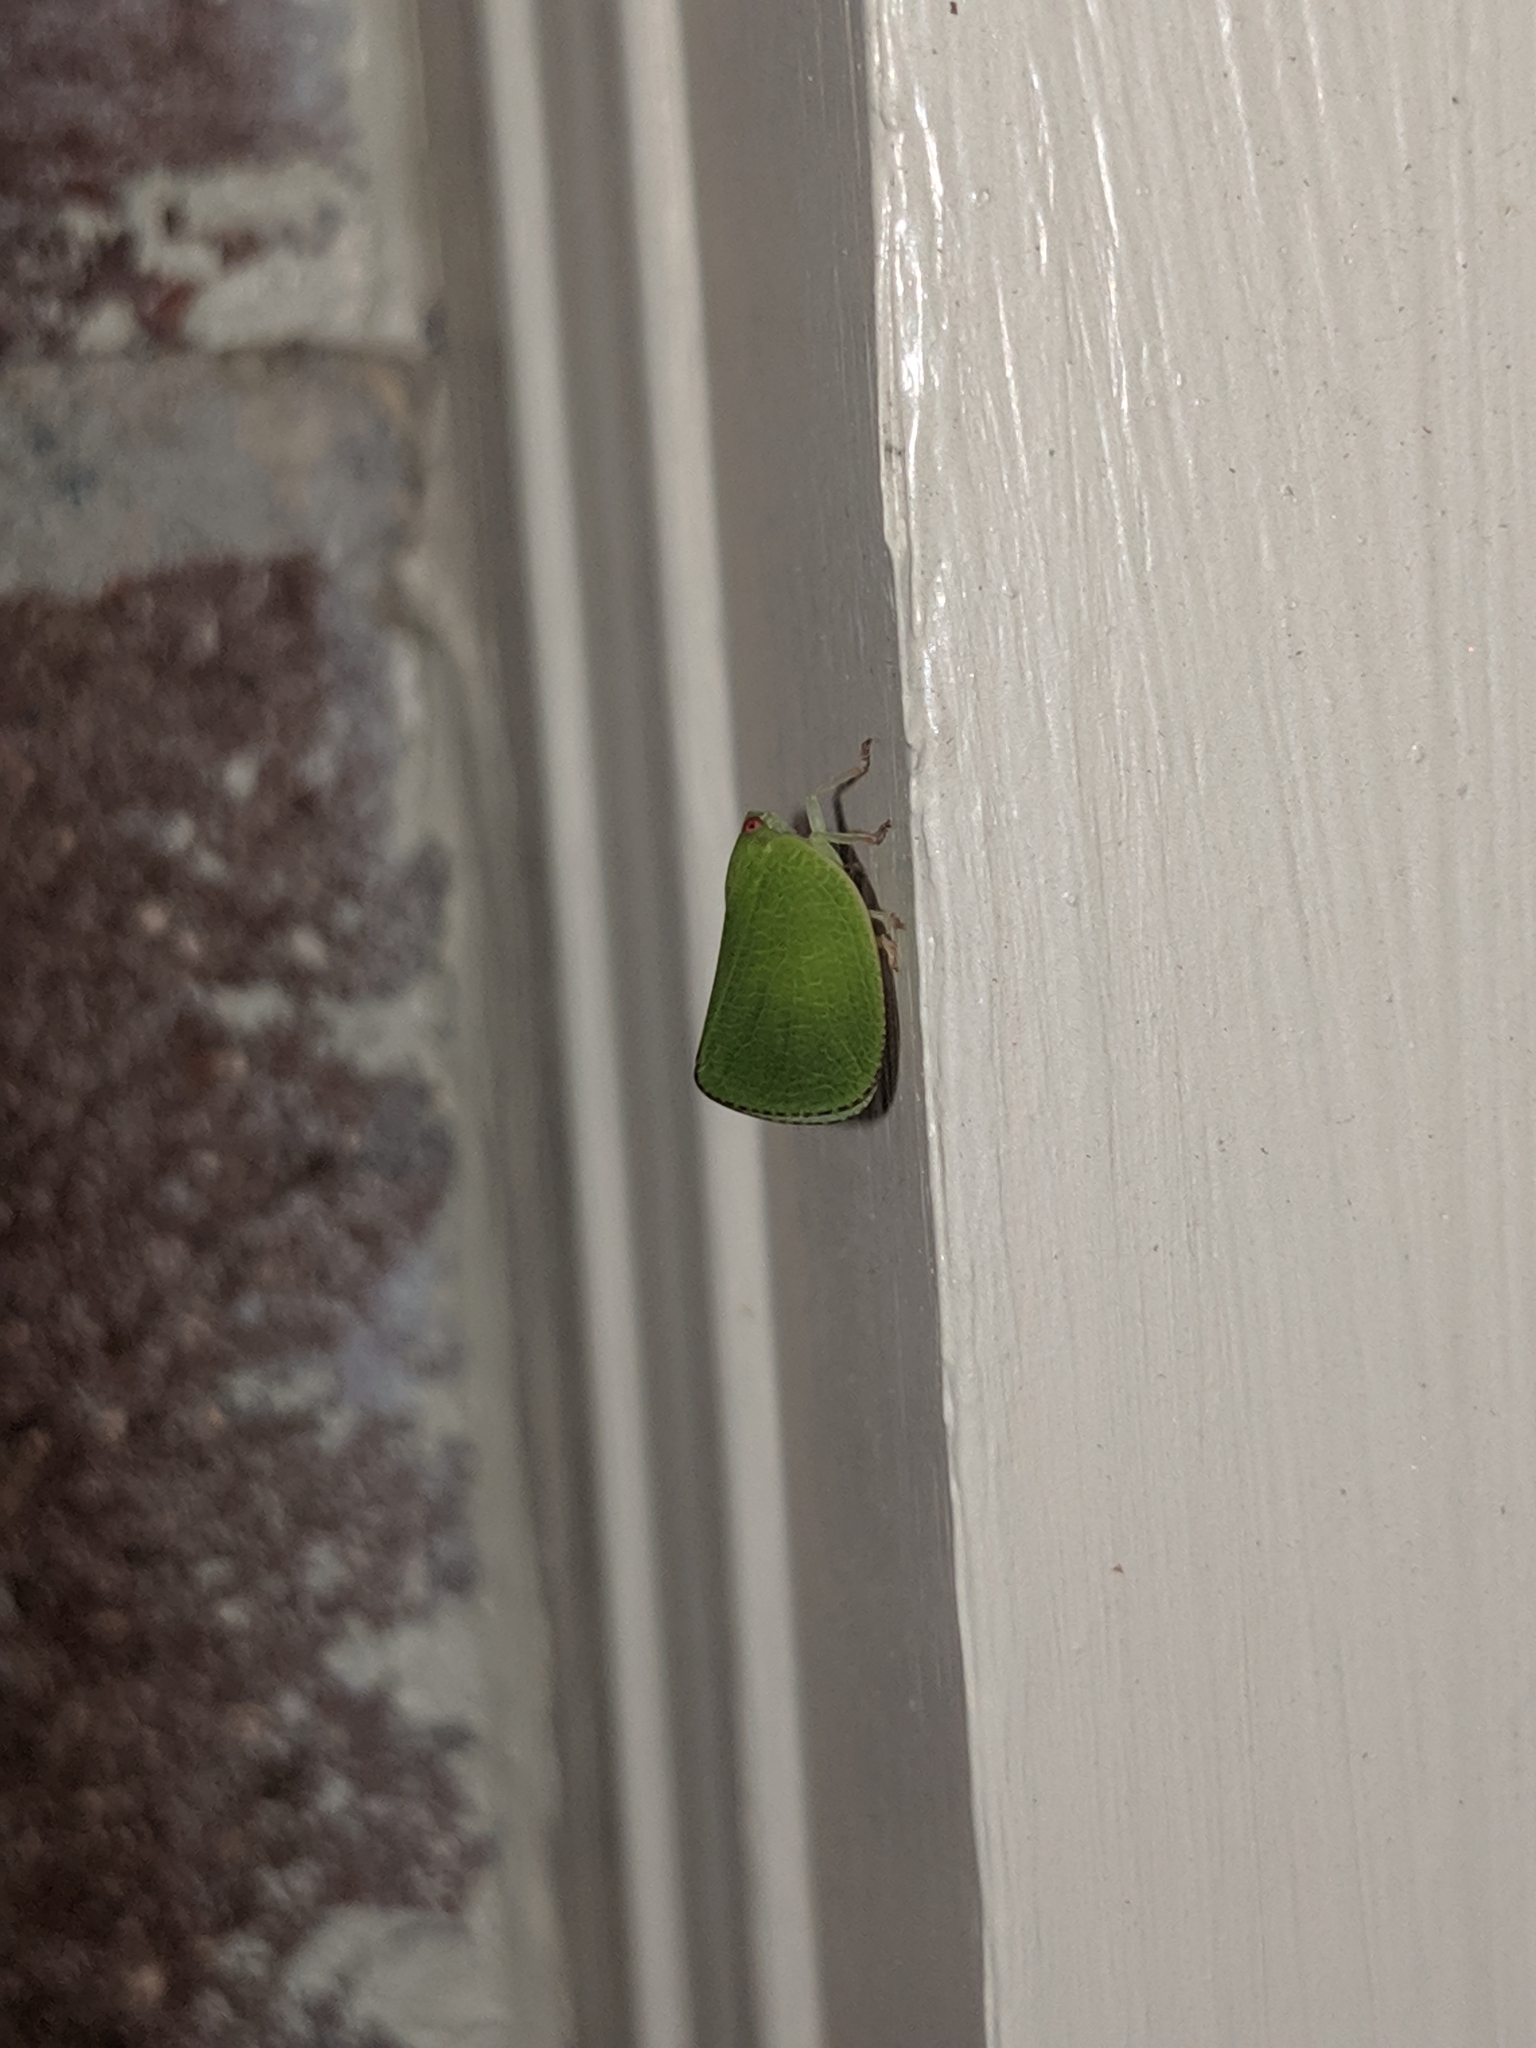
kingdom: Animalia
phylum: Arthropoda
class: Insecta
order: Hemiptera
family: Acanaloniidae
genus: Acanalonia
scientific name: Acanalonia conica
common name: Green cone-headed planthopper
